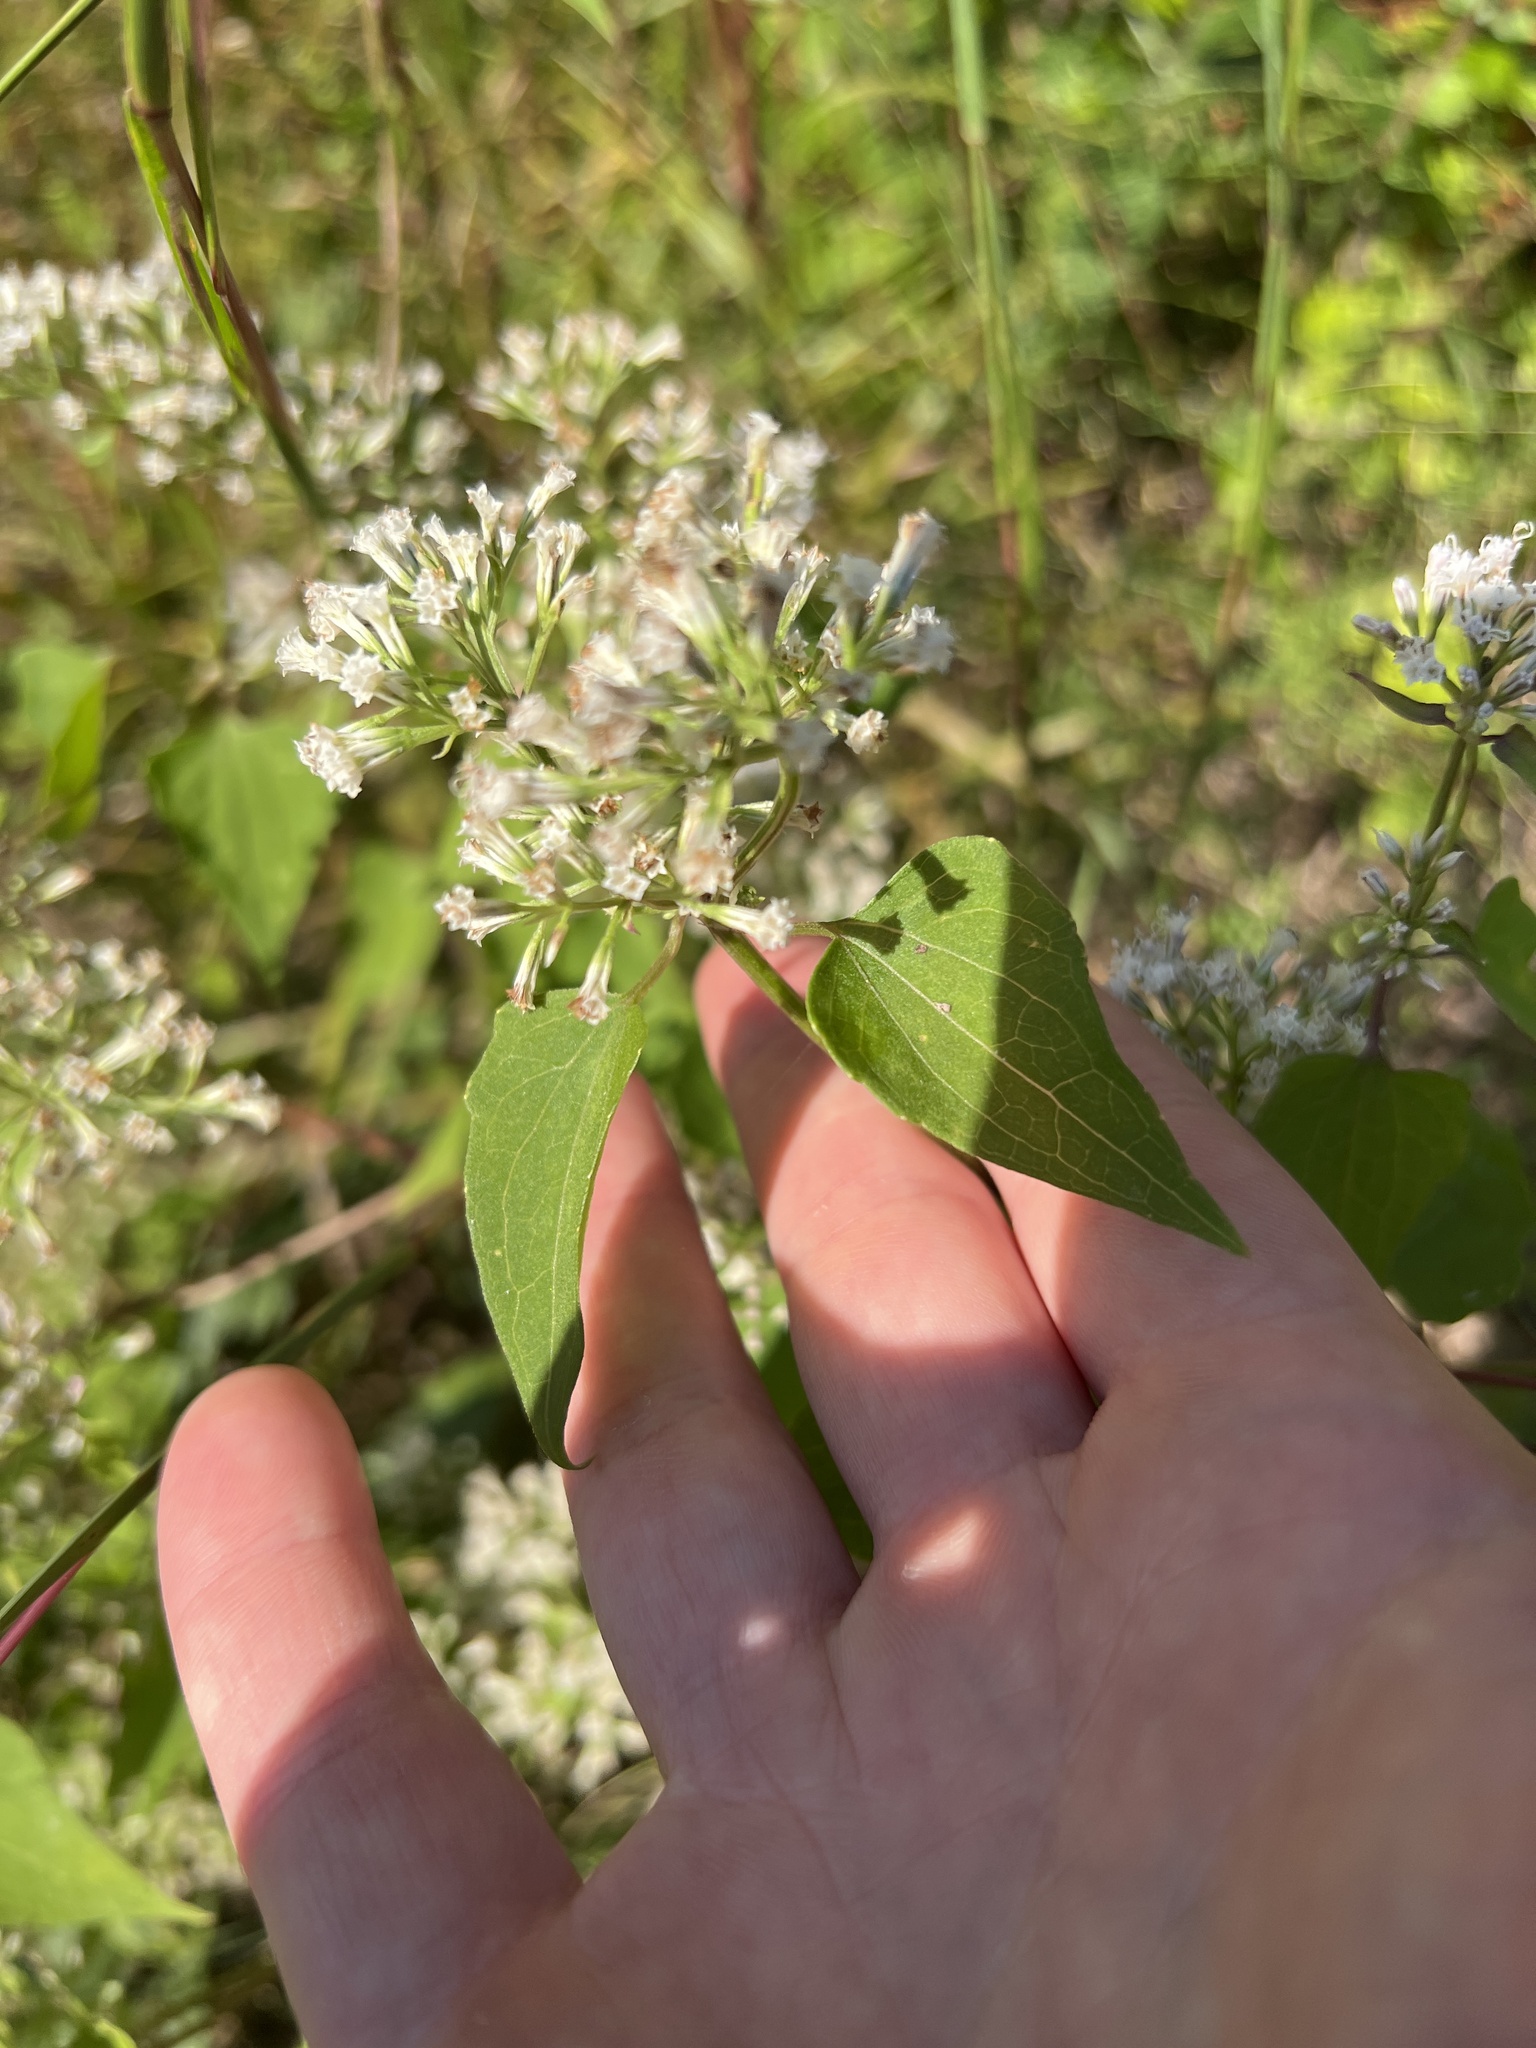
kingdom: Plantae
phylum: Tracheophyta
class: Magnoliopsida
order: Asterales
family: Asteraceae
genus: Mikania
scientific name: Mikania scandens
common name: Climbing hempvine
